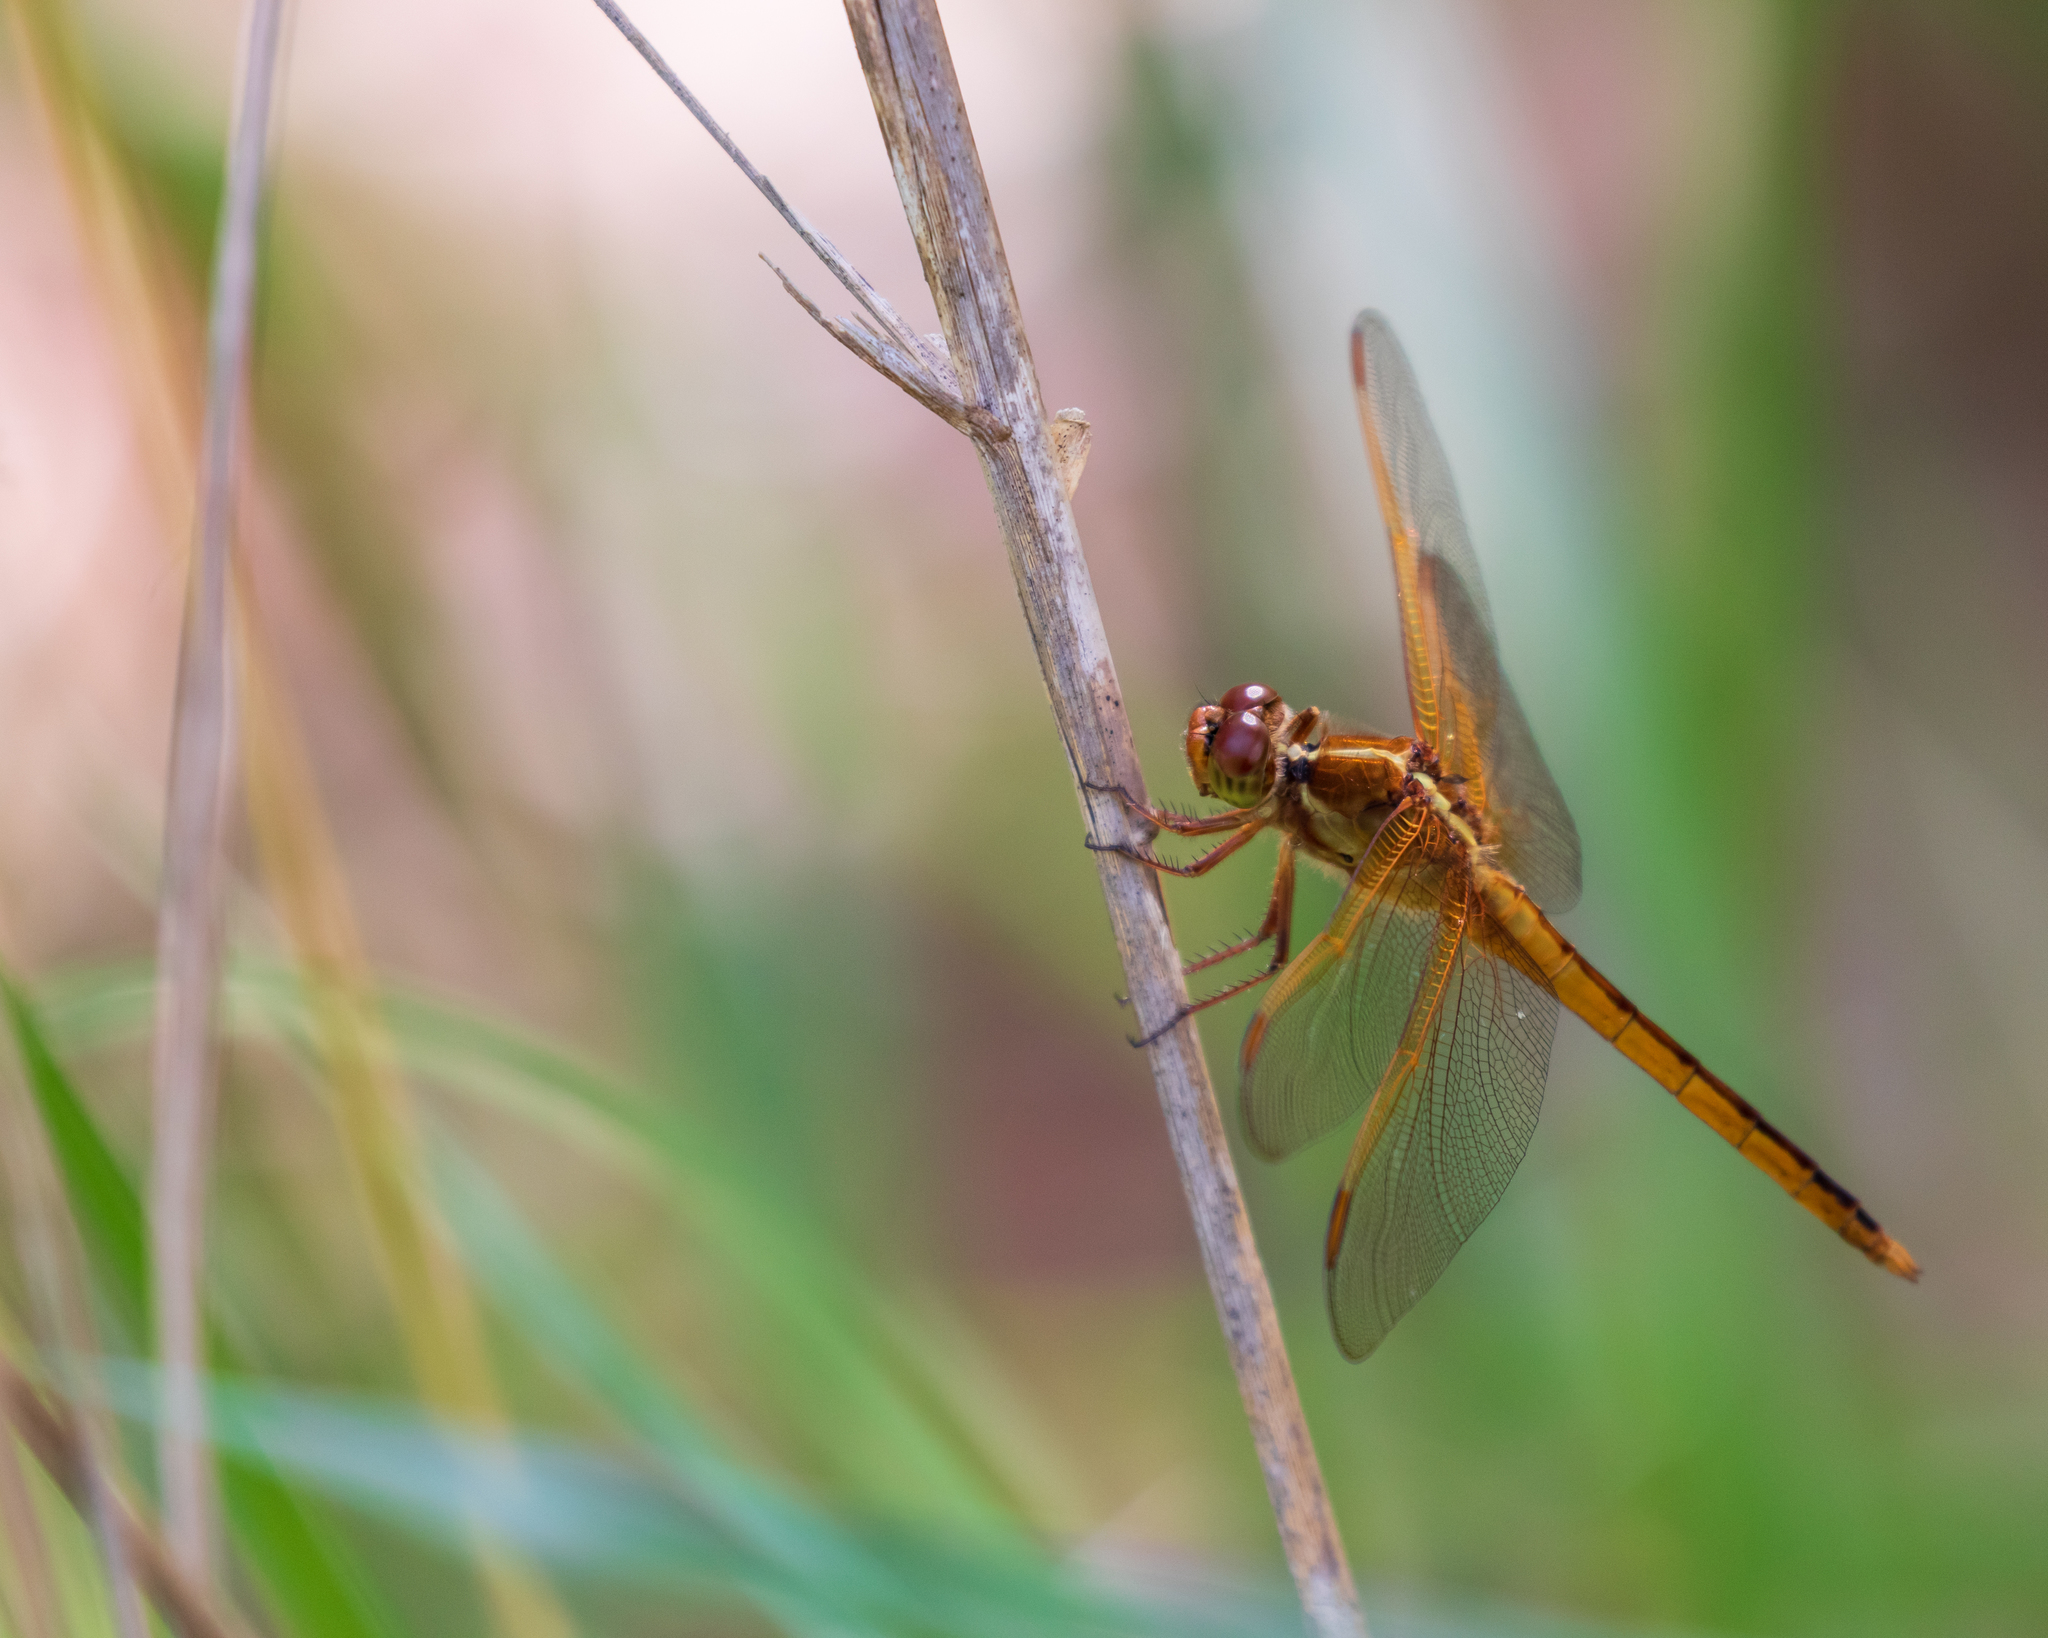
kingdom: Animalia
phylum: Arthropoda
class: Insecta
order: Odonata
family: Libellulidae
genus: Libellula
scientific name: Libellula needhami
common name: Needham's skimmer
